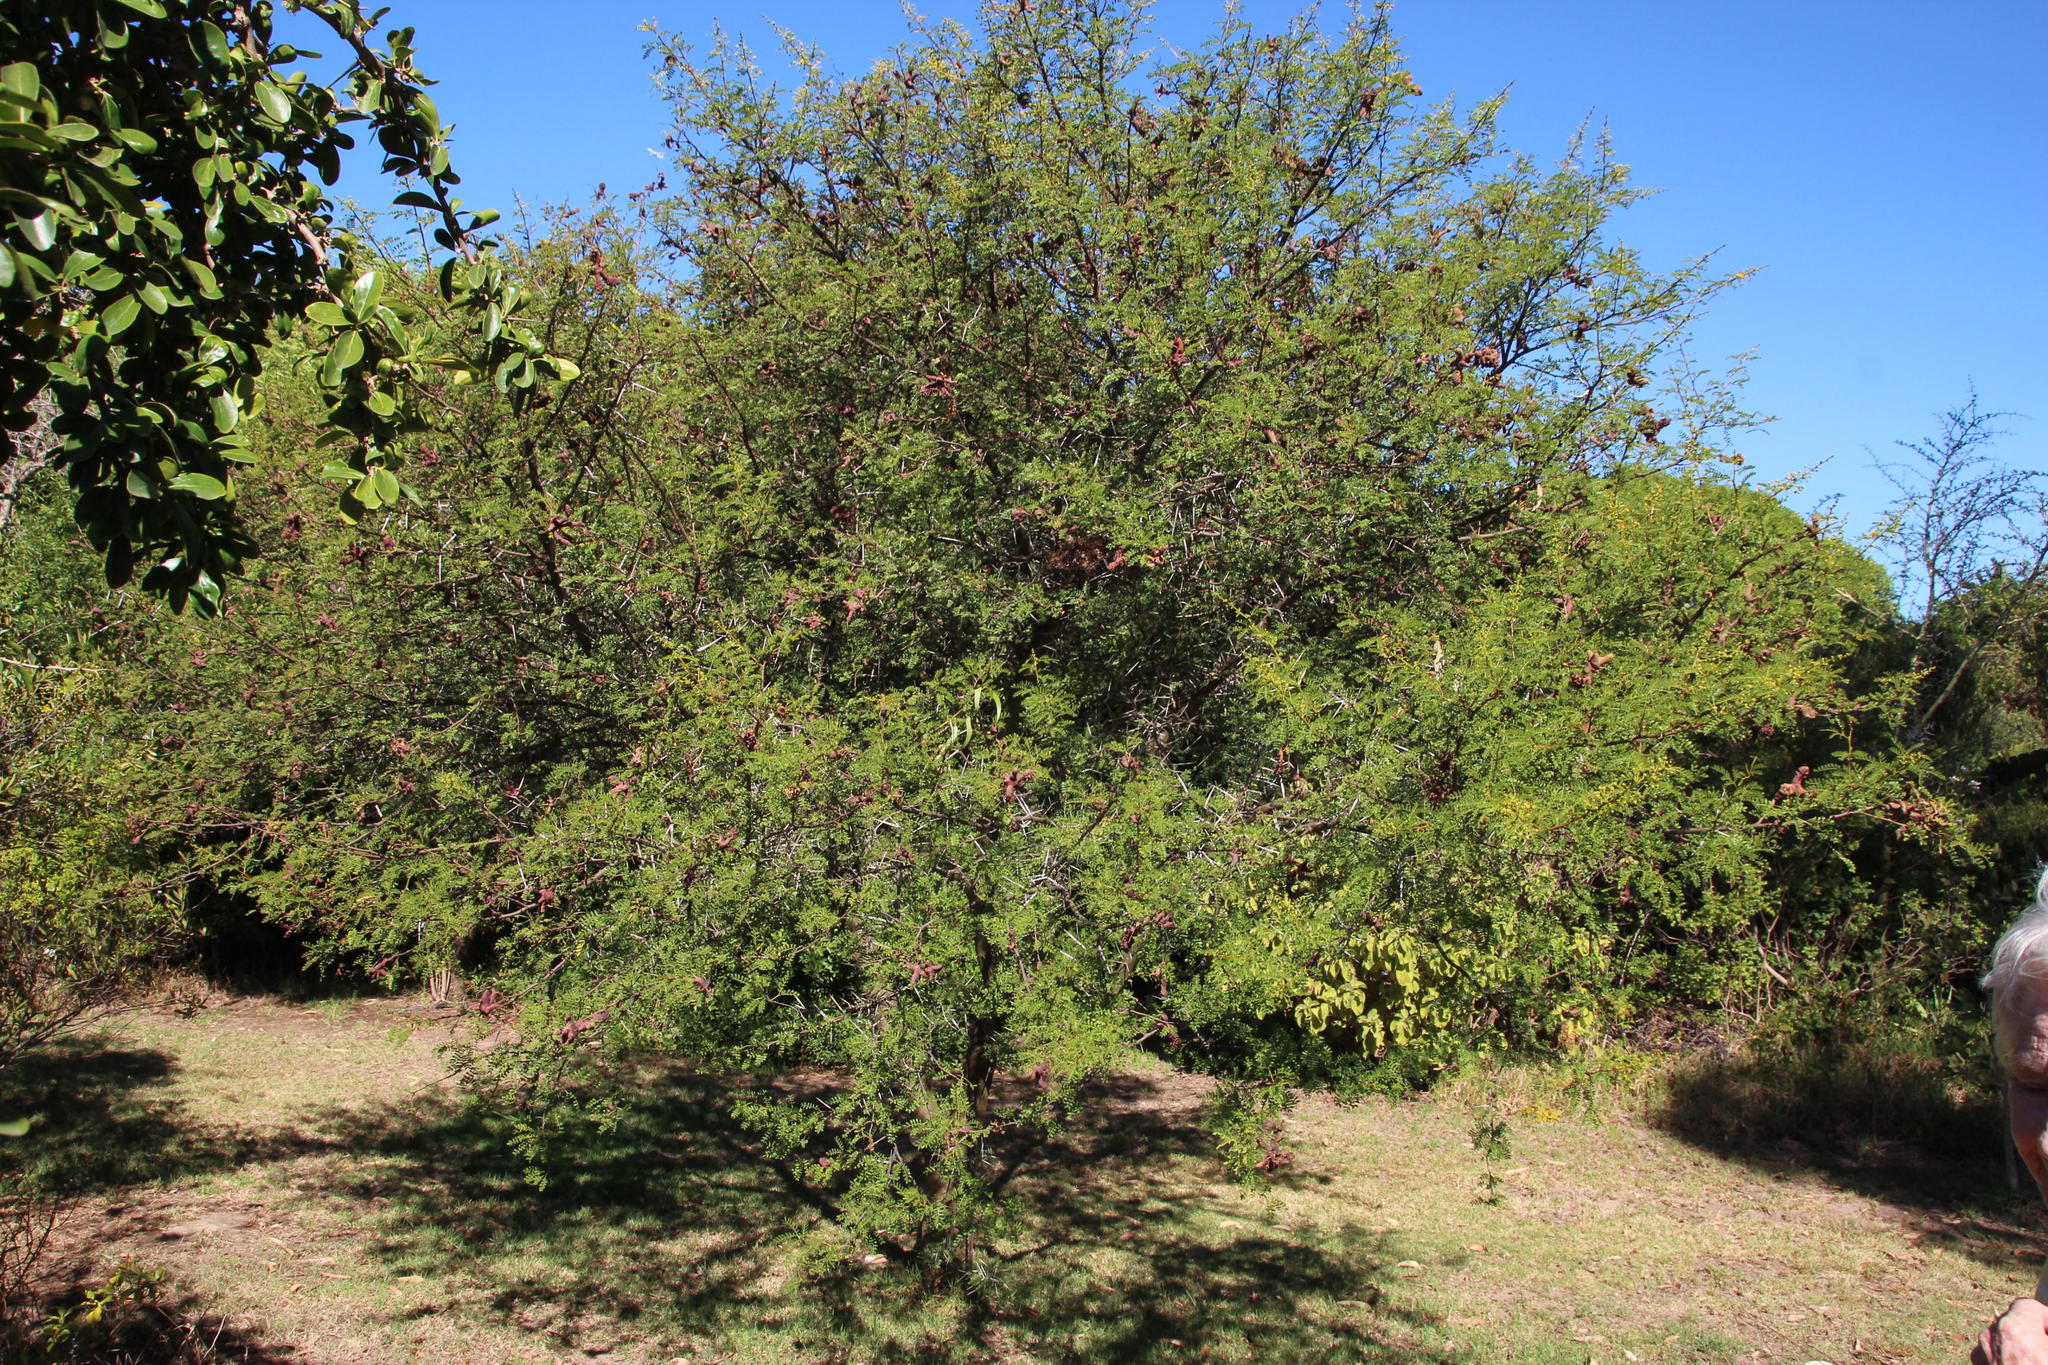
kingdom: Plantae
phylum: Tracheophyta
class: Magnoliopsida
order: Fabales
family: Fabaceae
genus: Vachellia
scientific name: Vachellia karroo
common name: Sweet thorn
